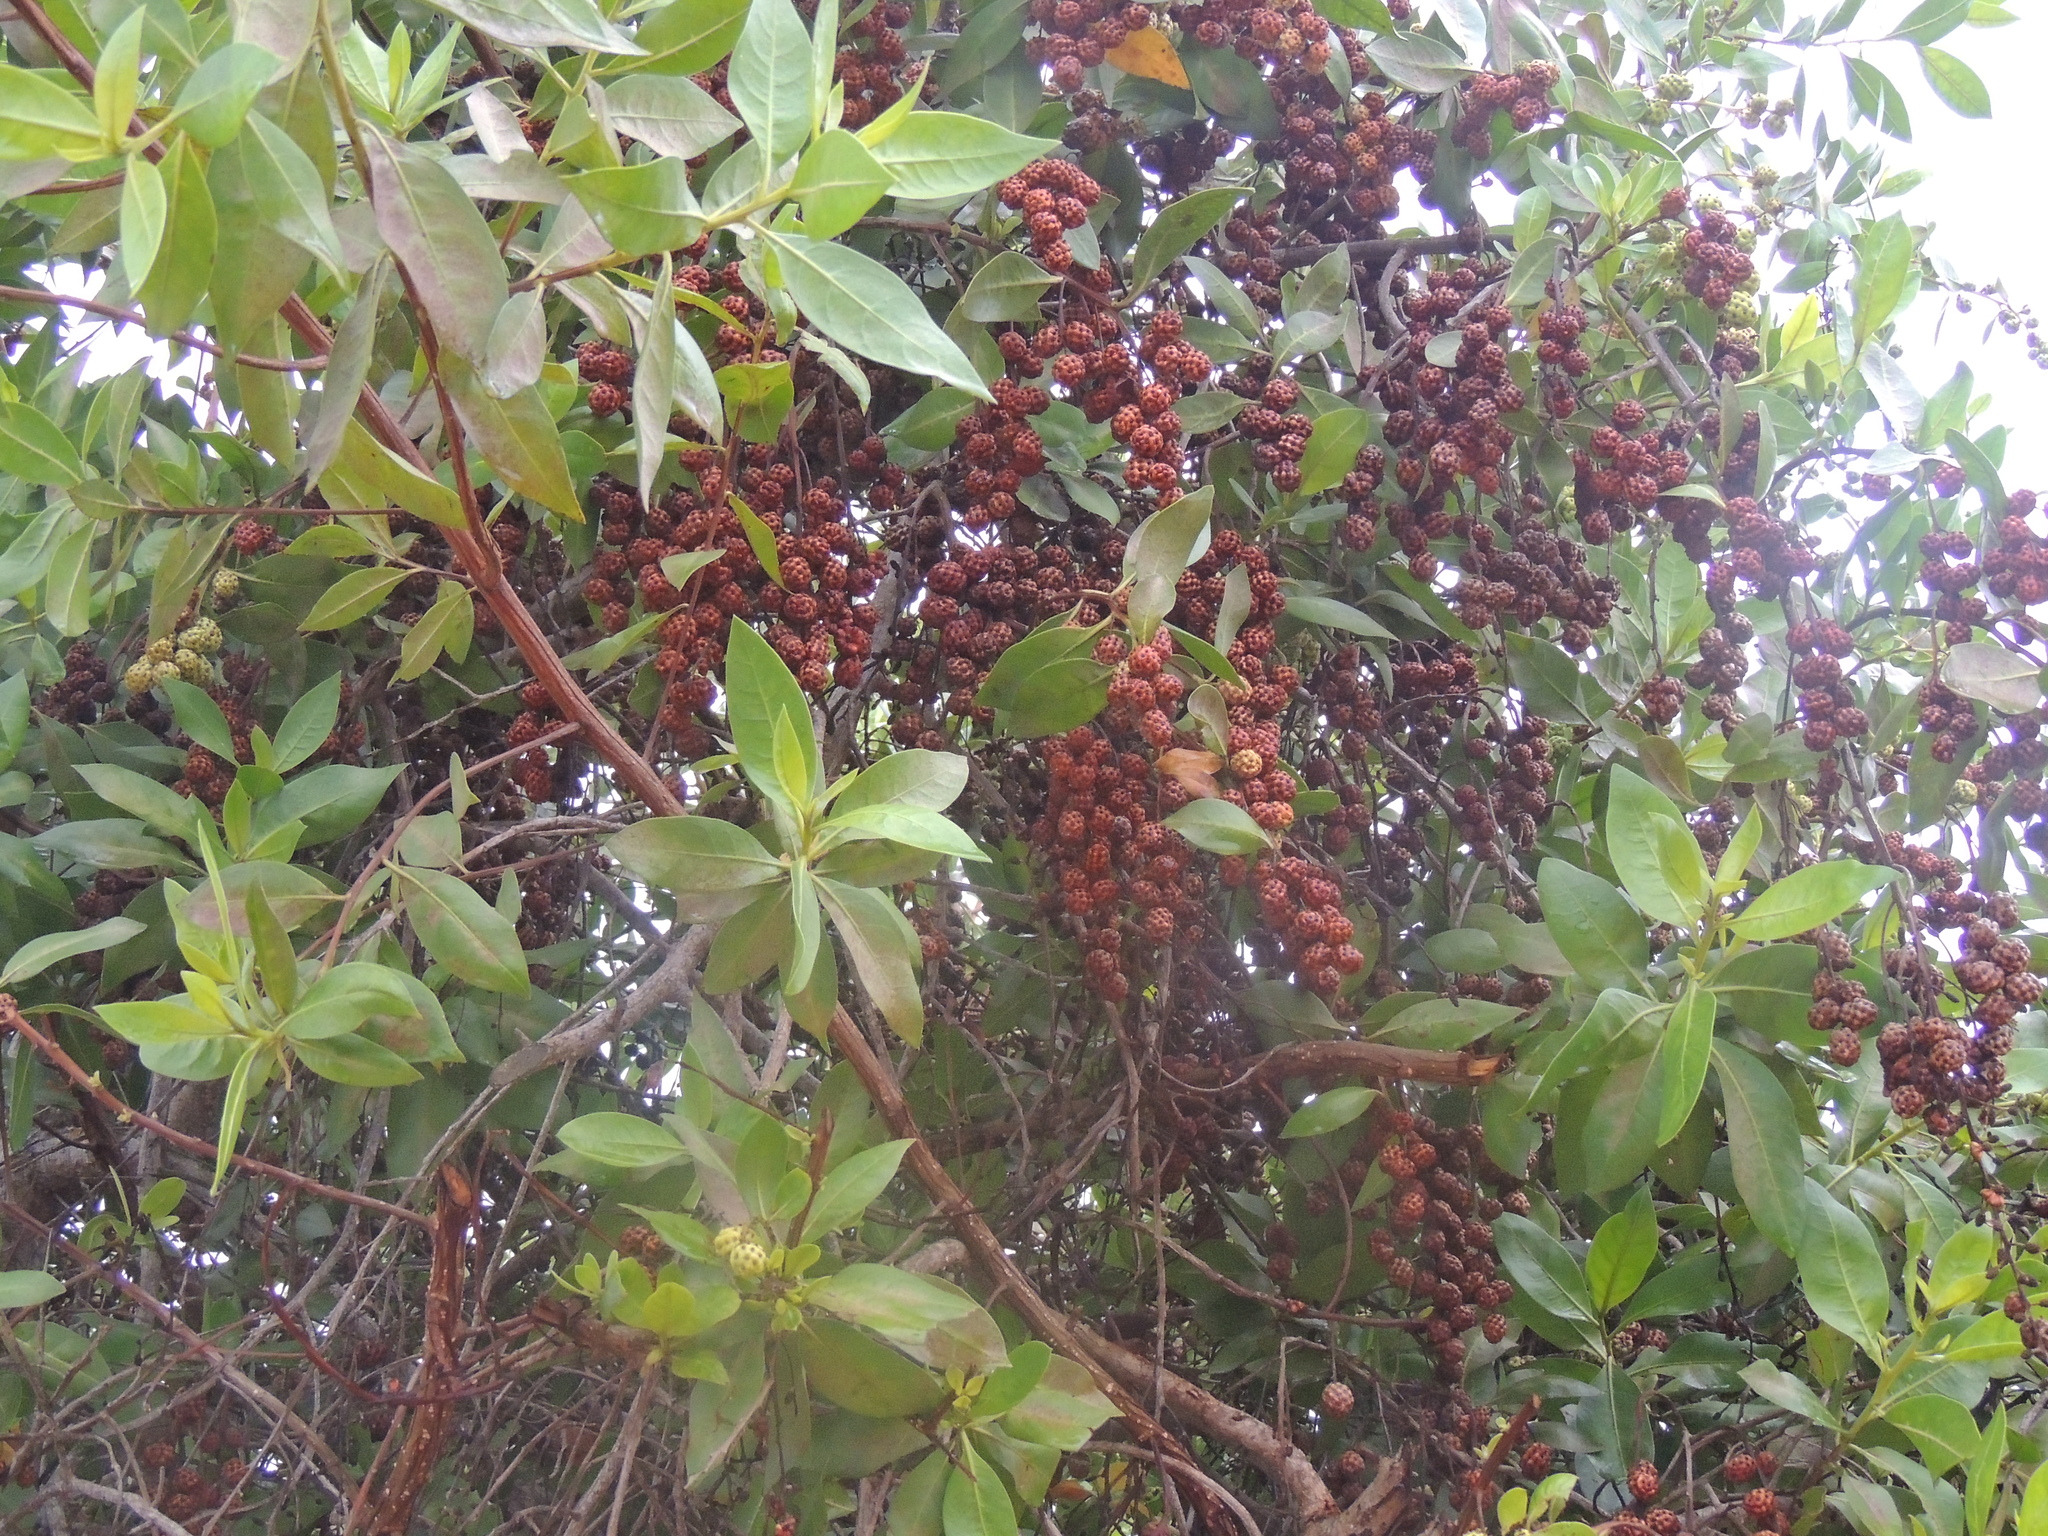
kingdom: Plantae
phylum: Tracheophyta
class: Magnoliopsida
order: Myrtales
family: Combretaceae
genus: Conocarpus
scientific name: Conocarpus erectus
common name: Button mangrove
